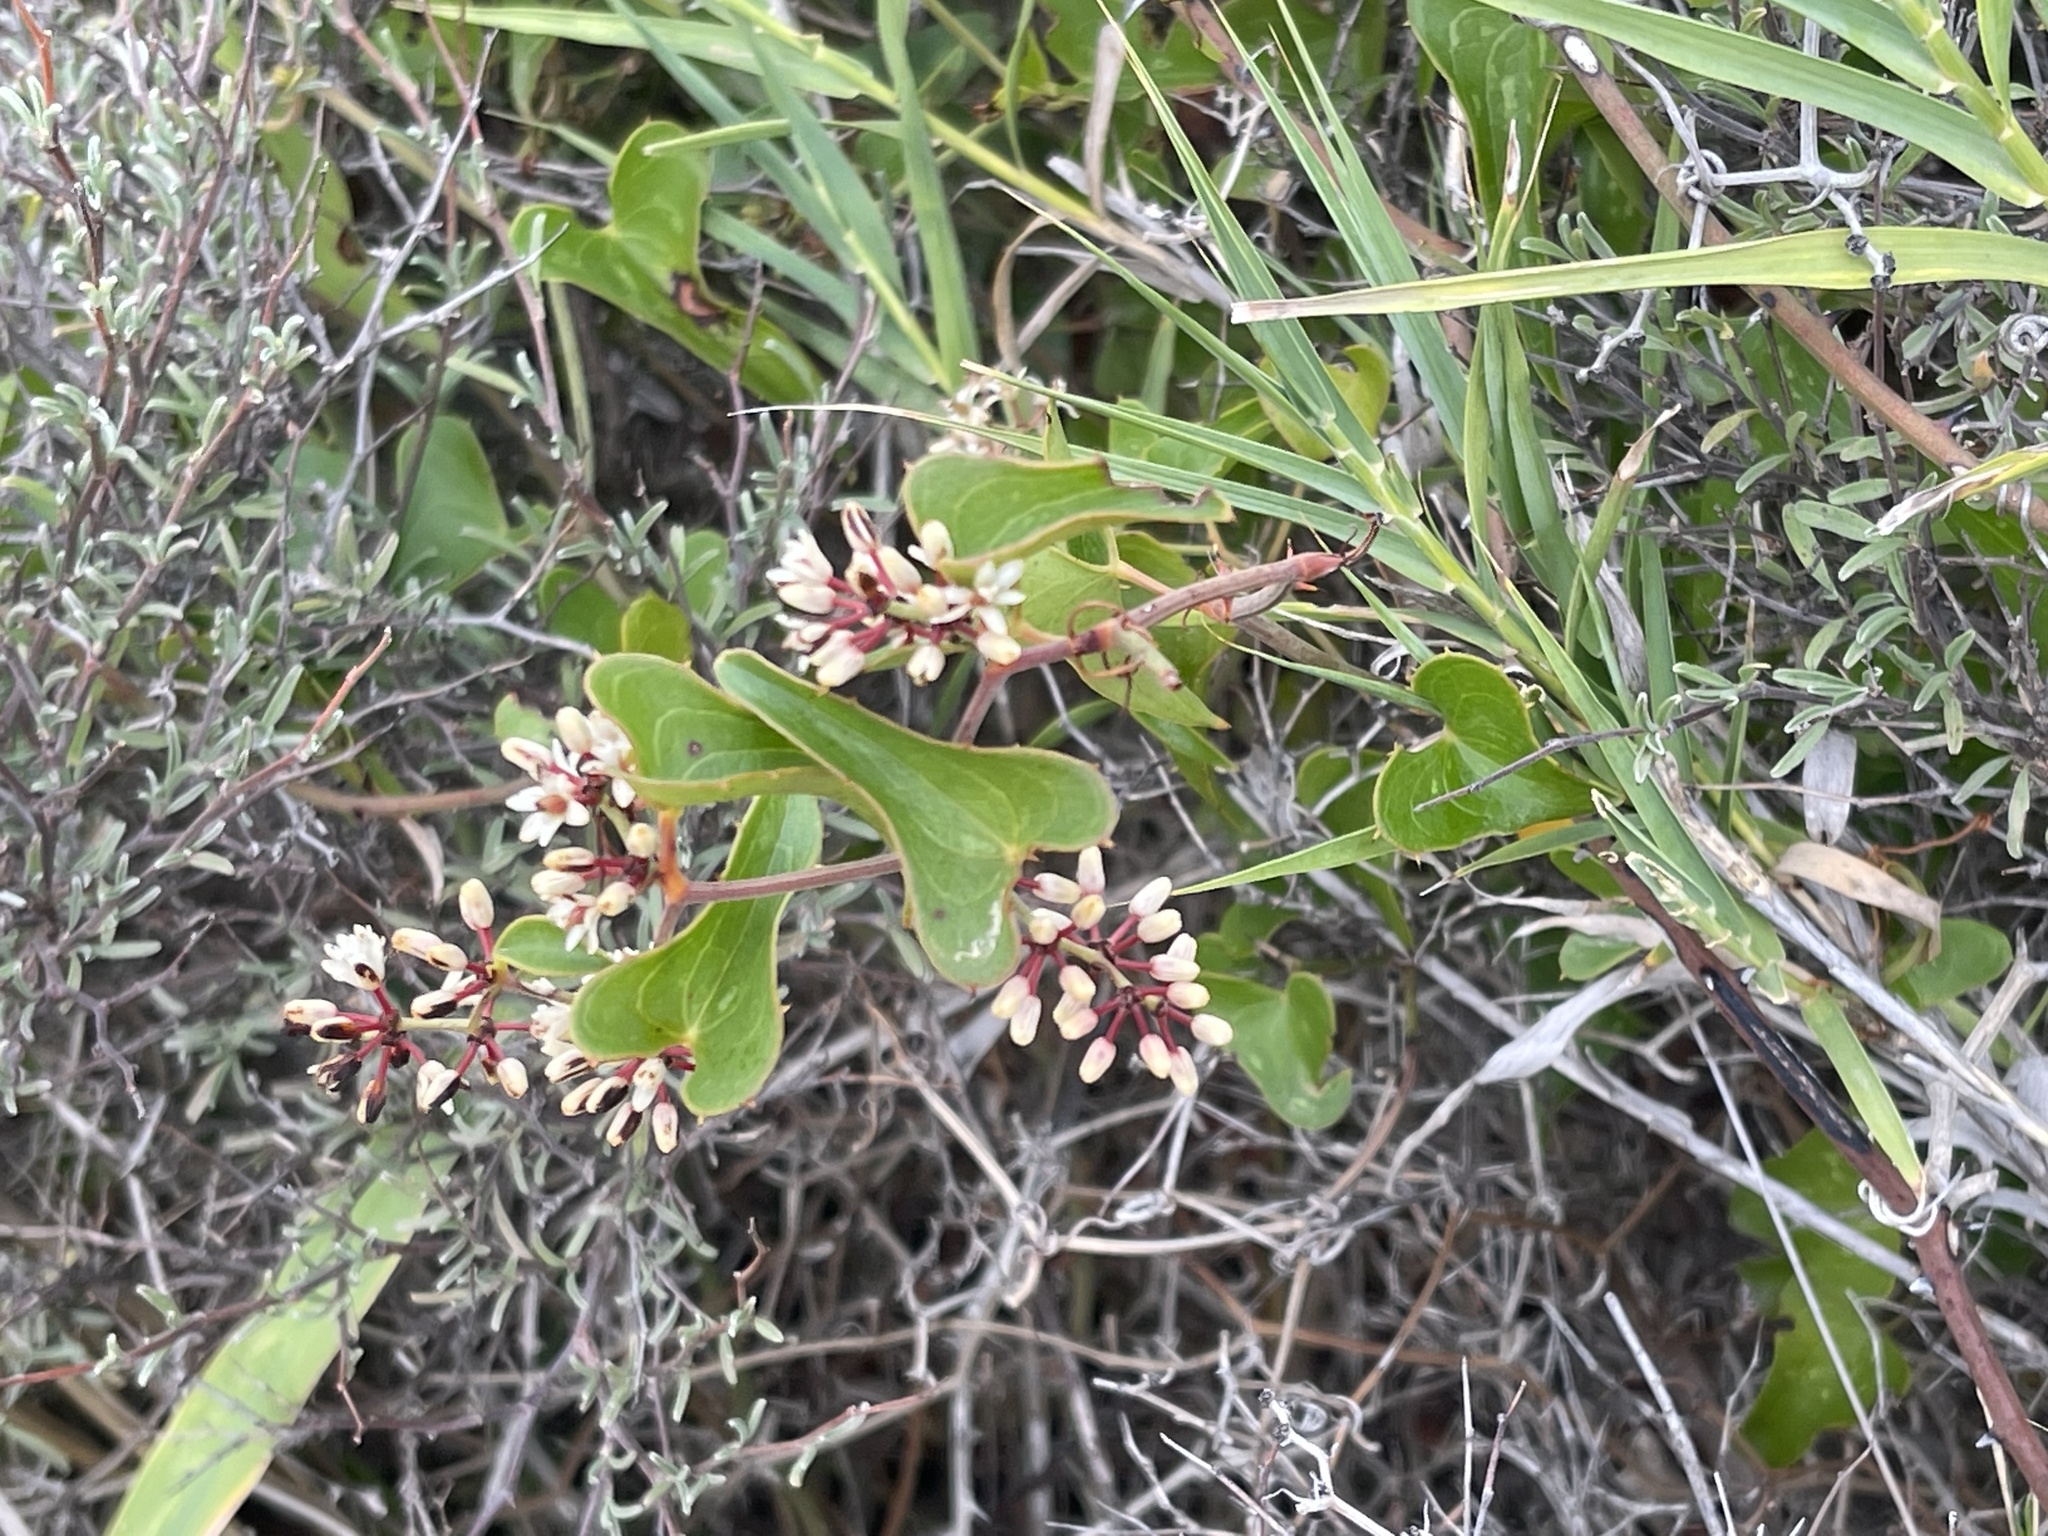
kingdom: Plantae
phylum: Tracheophyta
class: Liliopsida
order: Liliales
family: Smilacaceae
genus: Smilax
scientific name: Smilax aspera
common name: Common smilax
